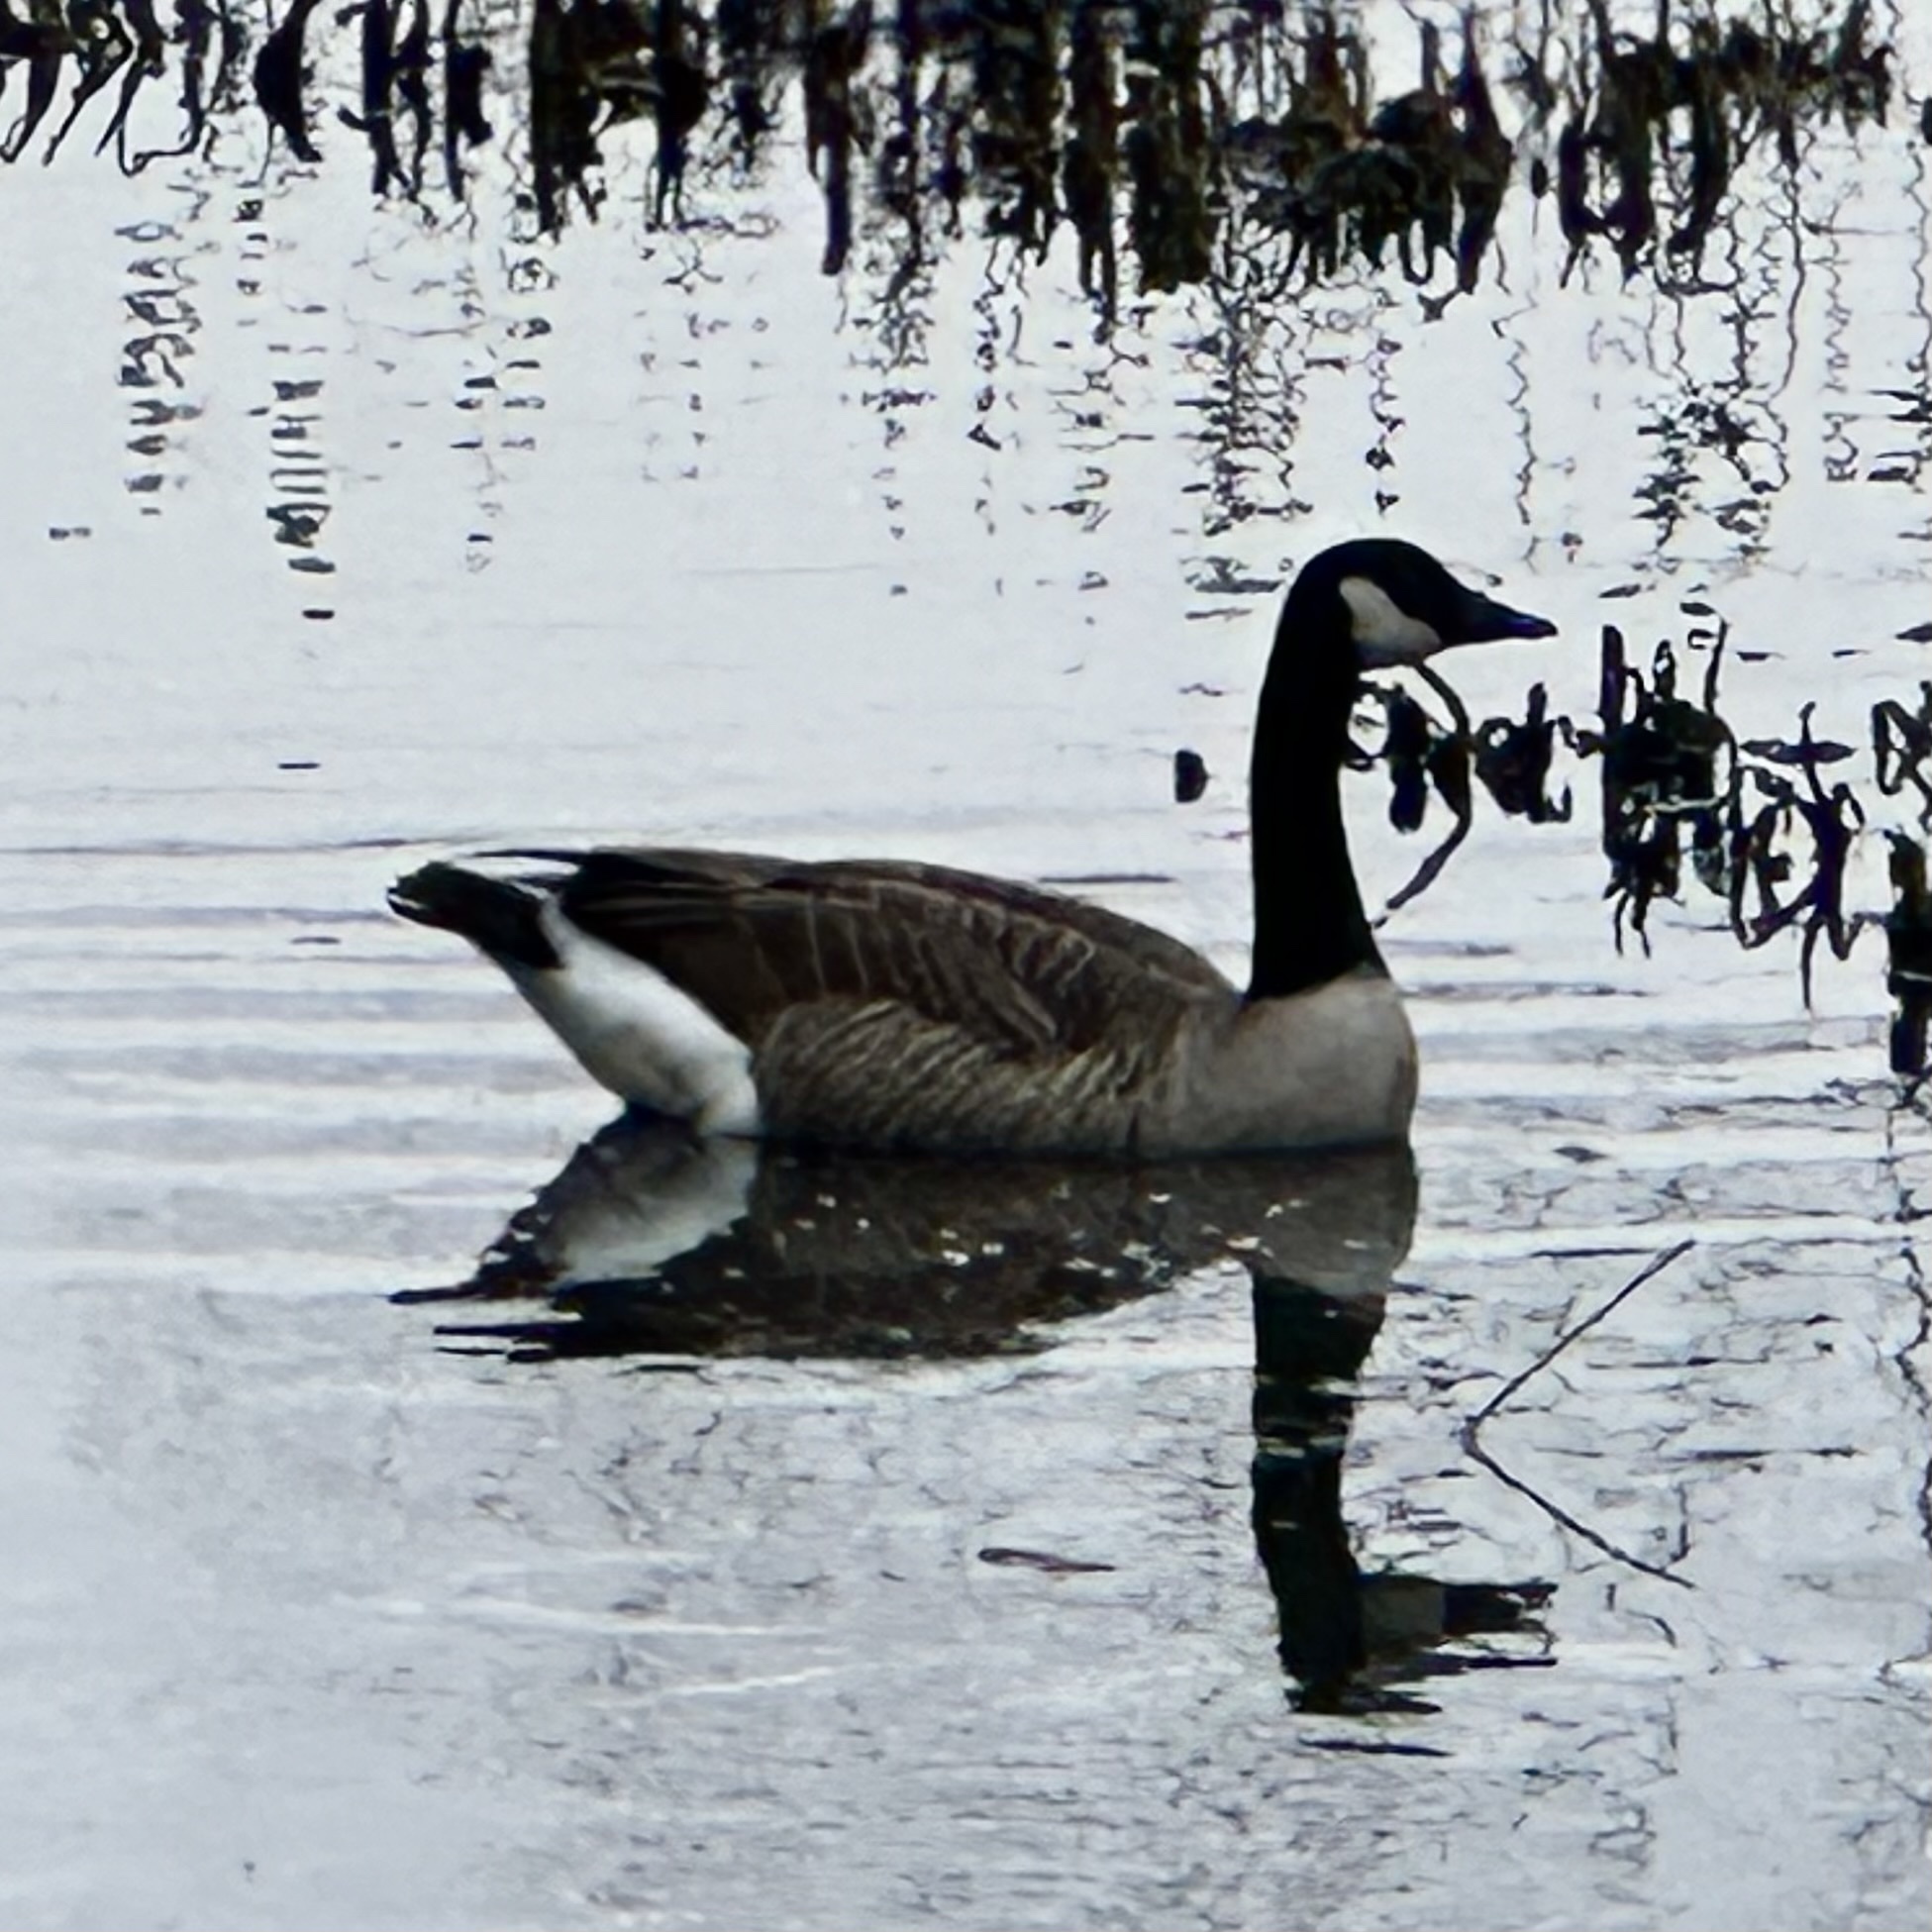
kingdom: Animalia
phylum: Chordata
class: Aves
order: Anseriformes
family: Anatidae
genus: Branta
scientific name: Branta canadensis
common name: Canada goose
